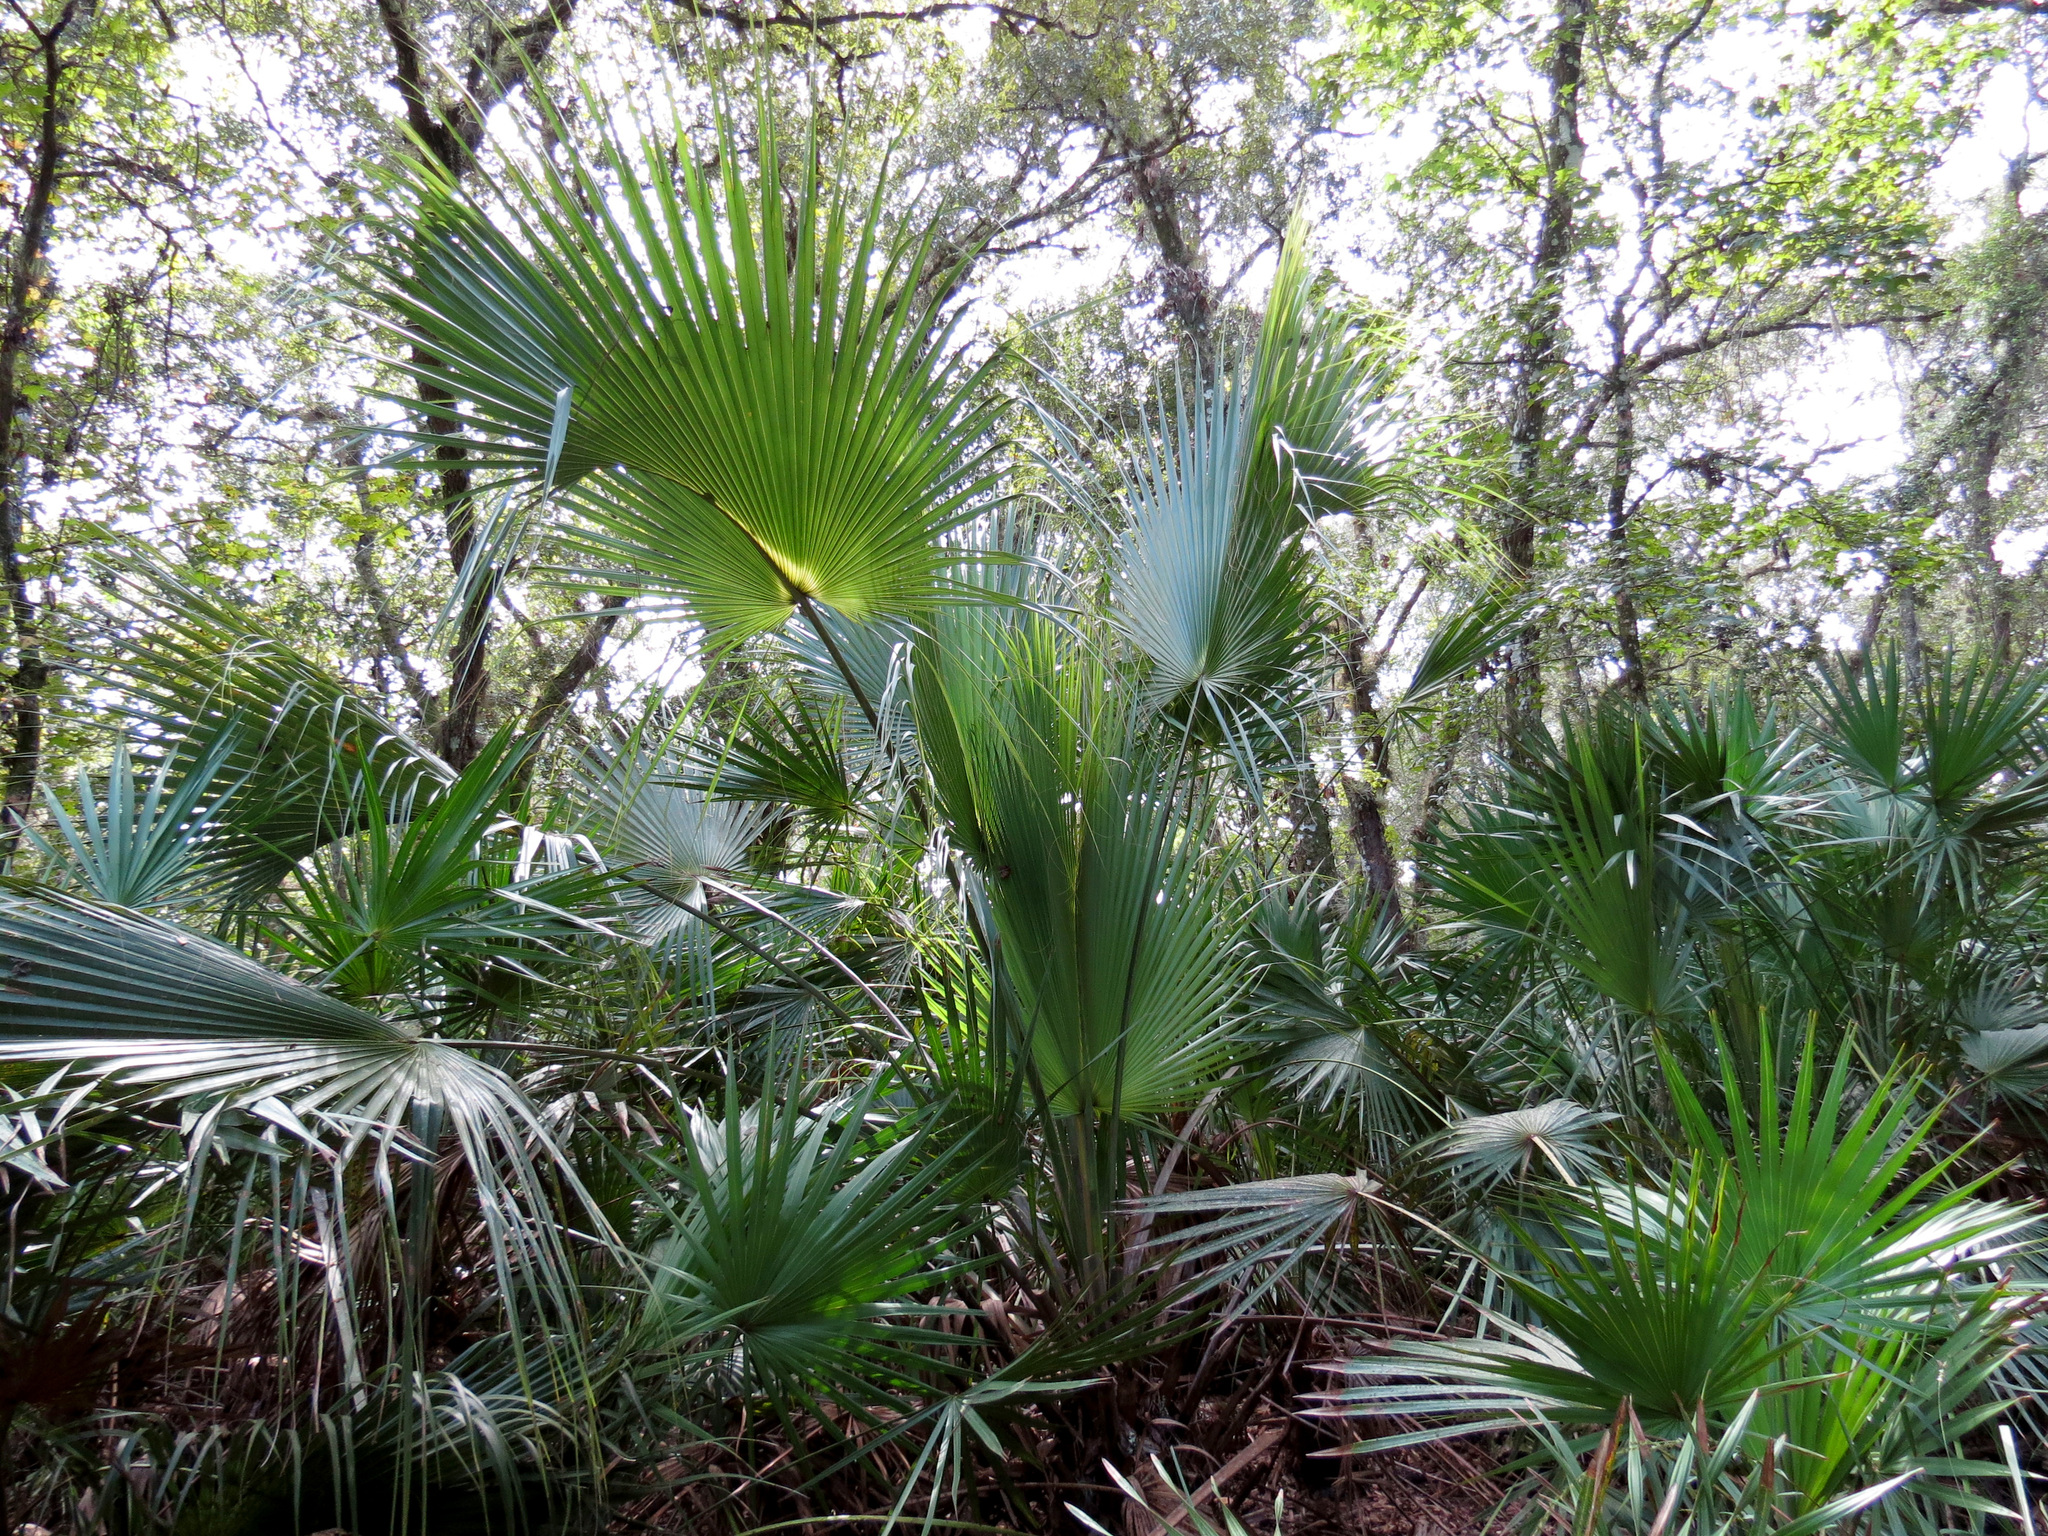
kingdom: Plantae
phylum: Tracheophyta
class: Liliopsida
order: Arecales
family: Arecaceae
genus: Sabal
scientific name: Sabal palmetto
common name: Blue palmetto
